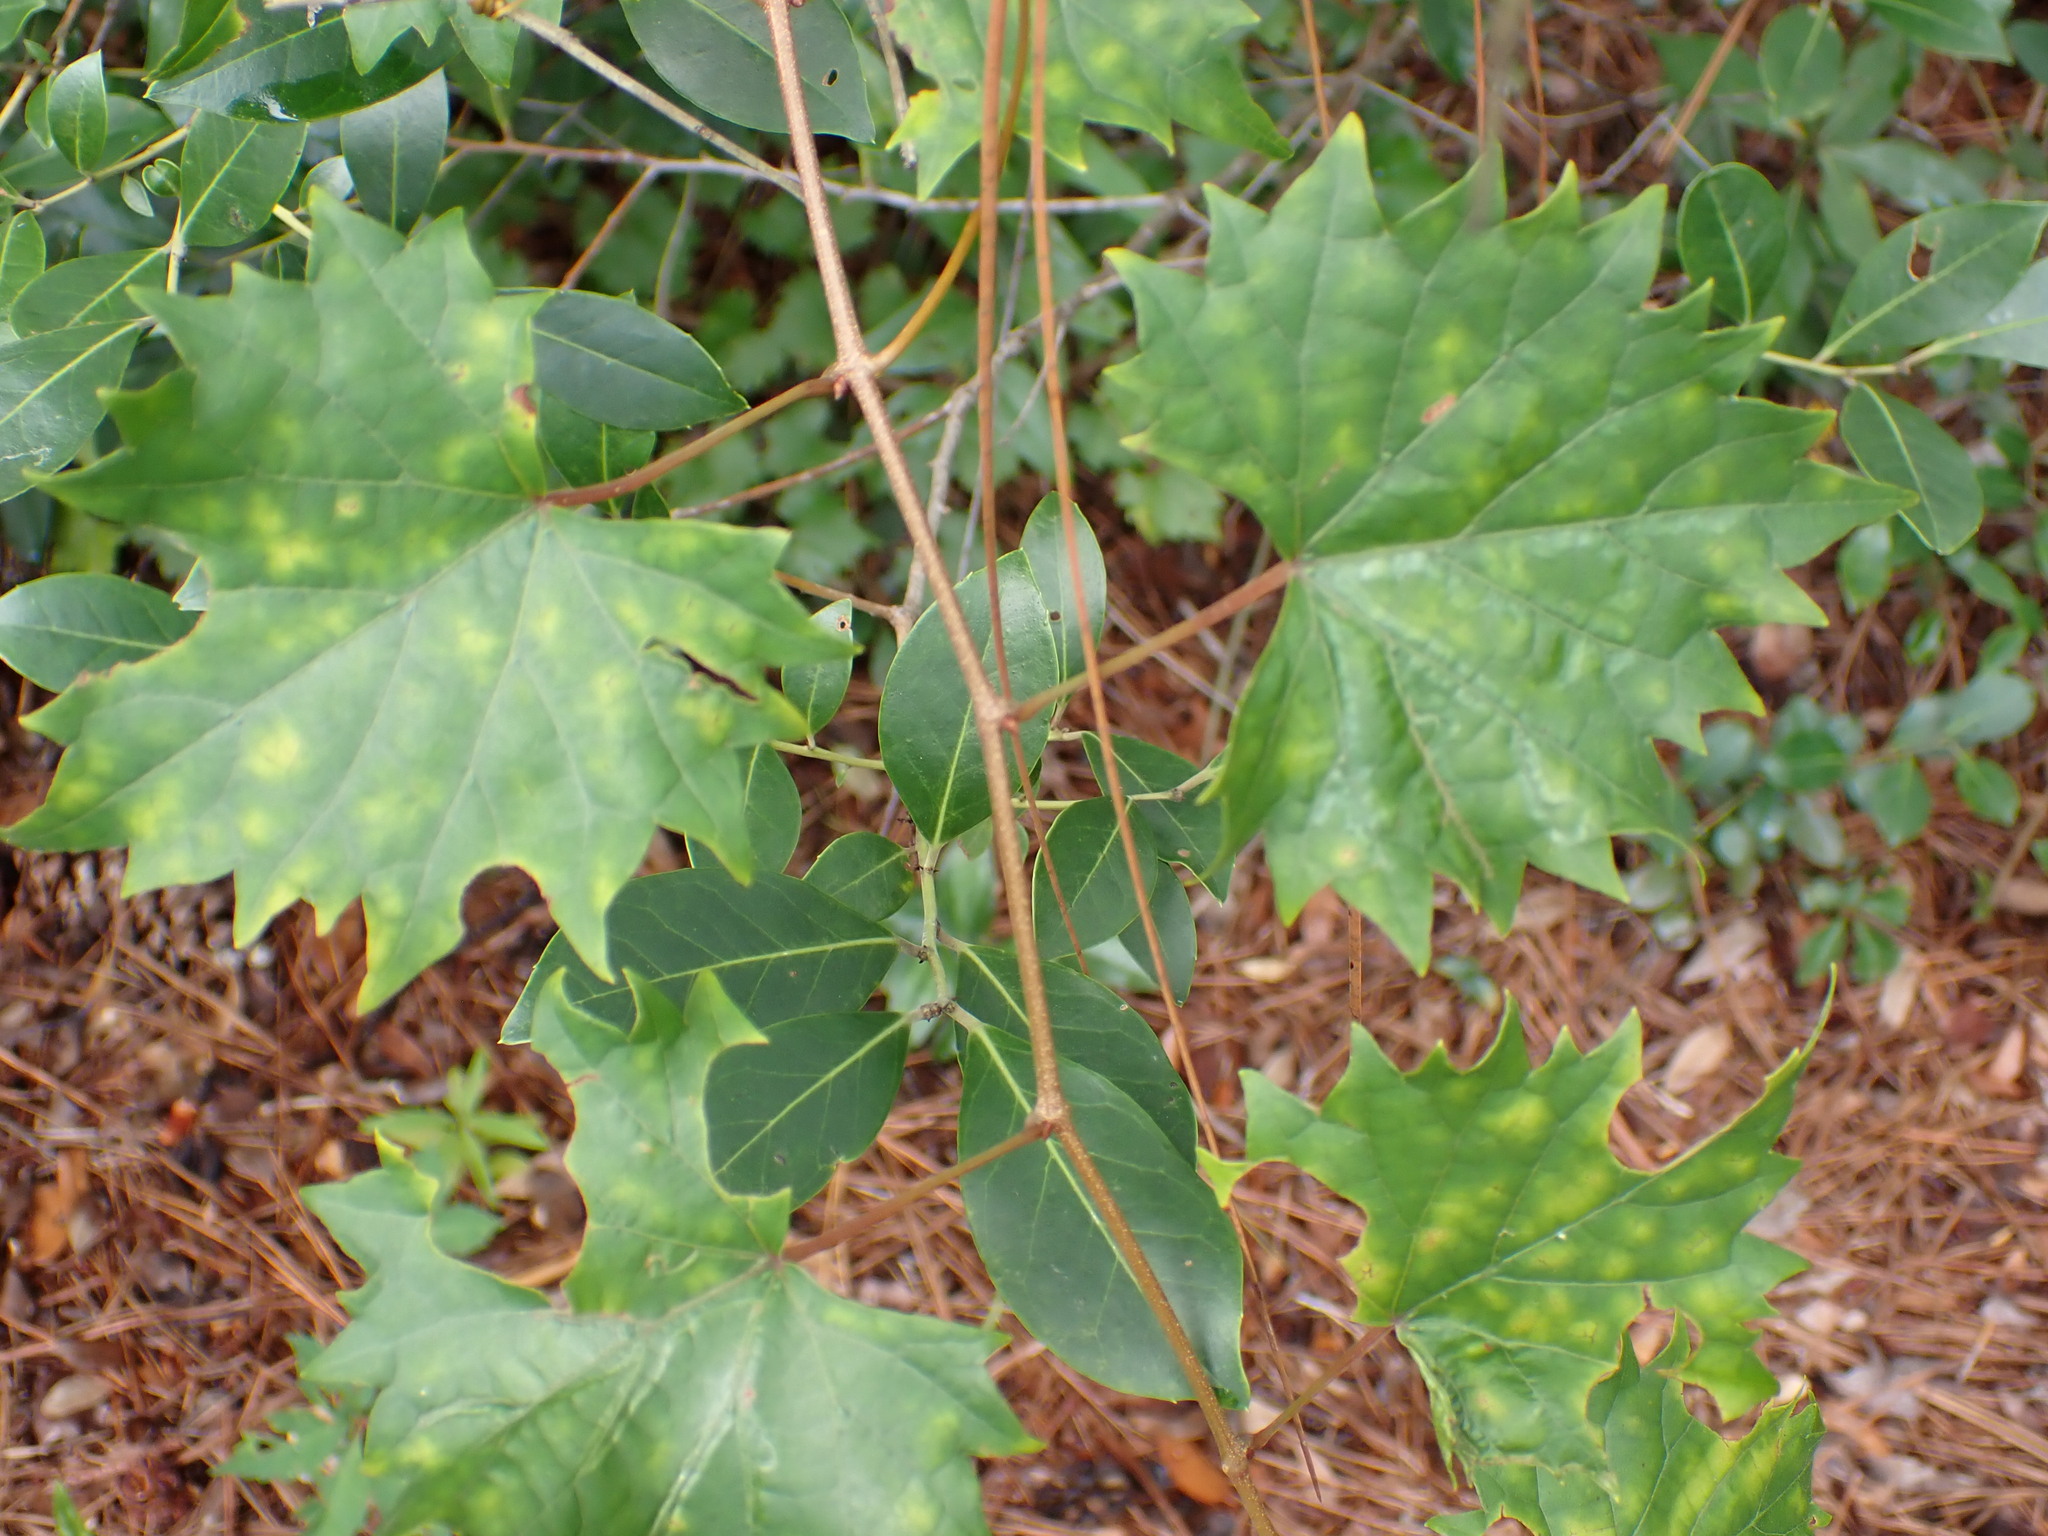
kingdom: Plantae
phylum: Tracheophyta
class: Magnoliopsida
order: Vitales
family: Vitaceae
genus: Vitis
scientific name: Vitis rotundifolia
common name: Muscadine grape
